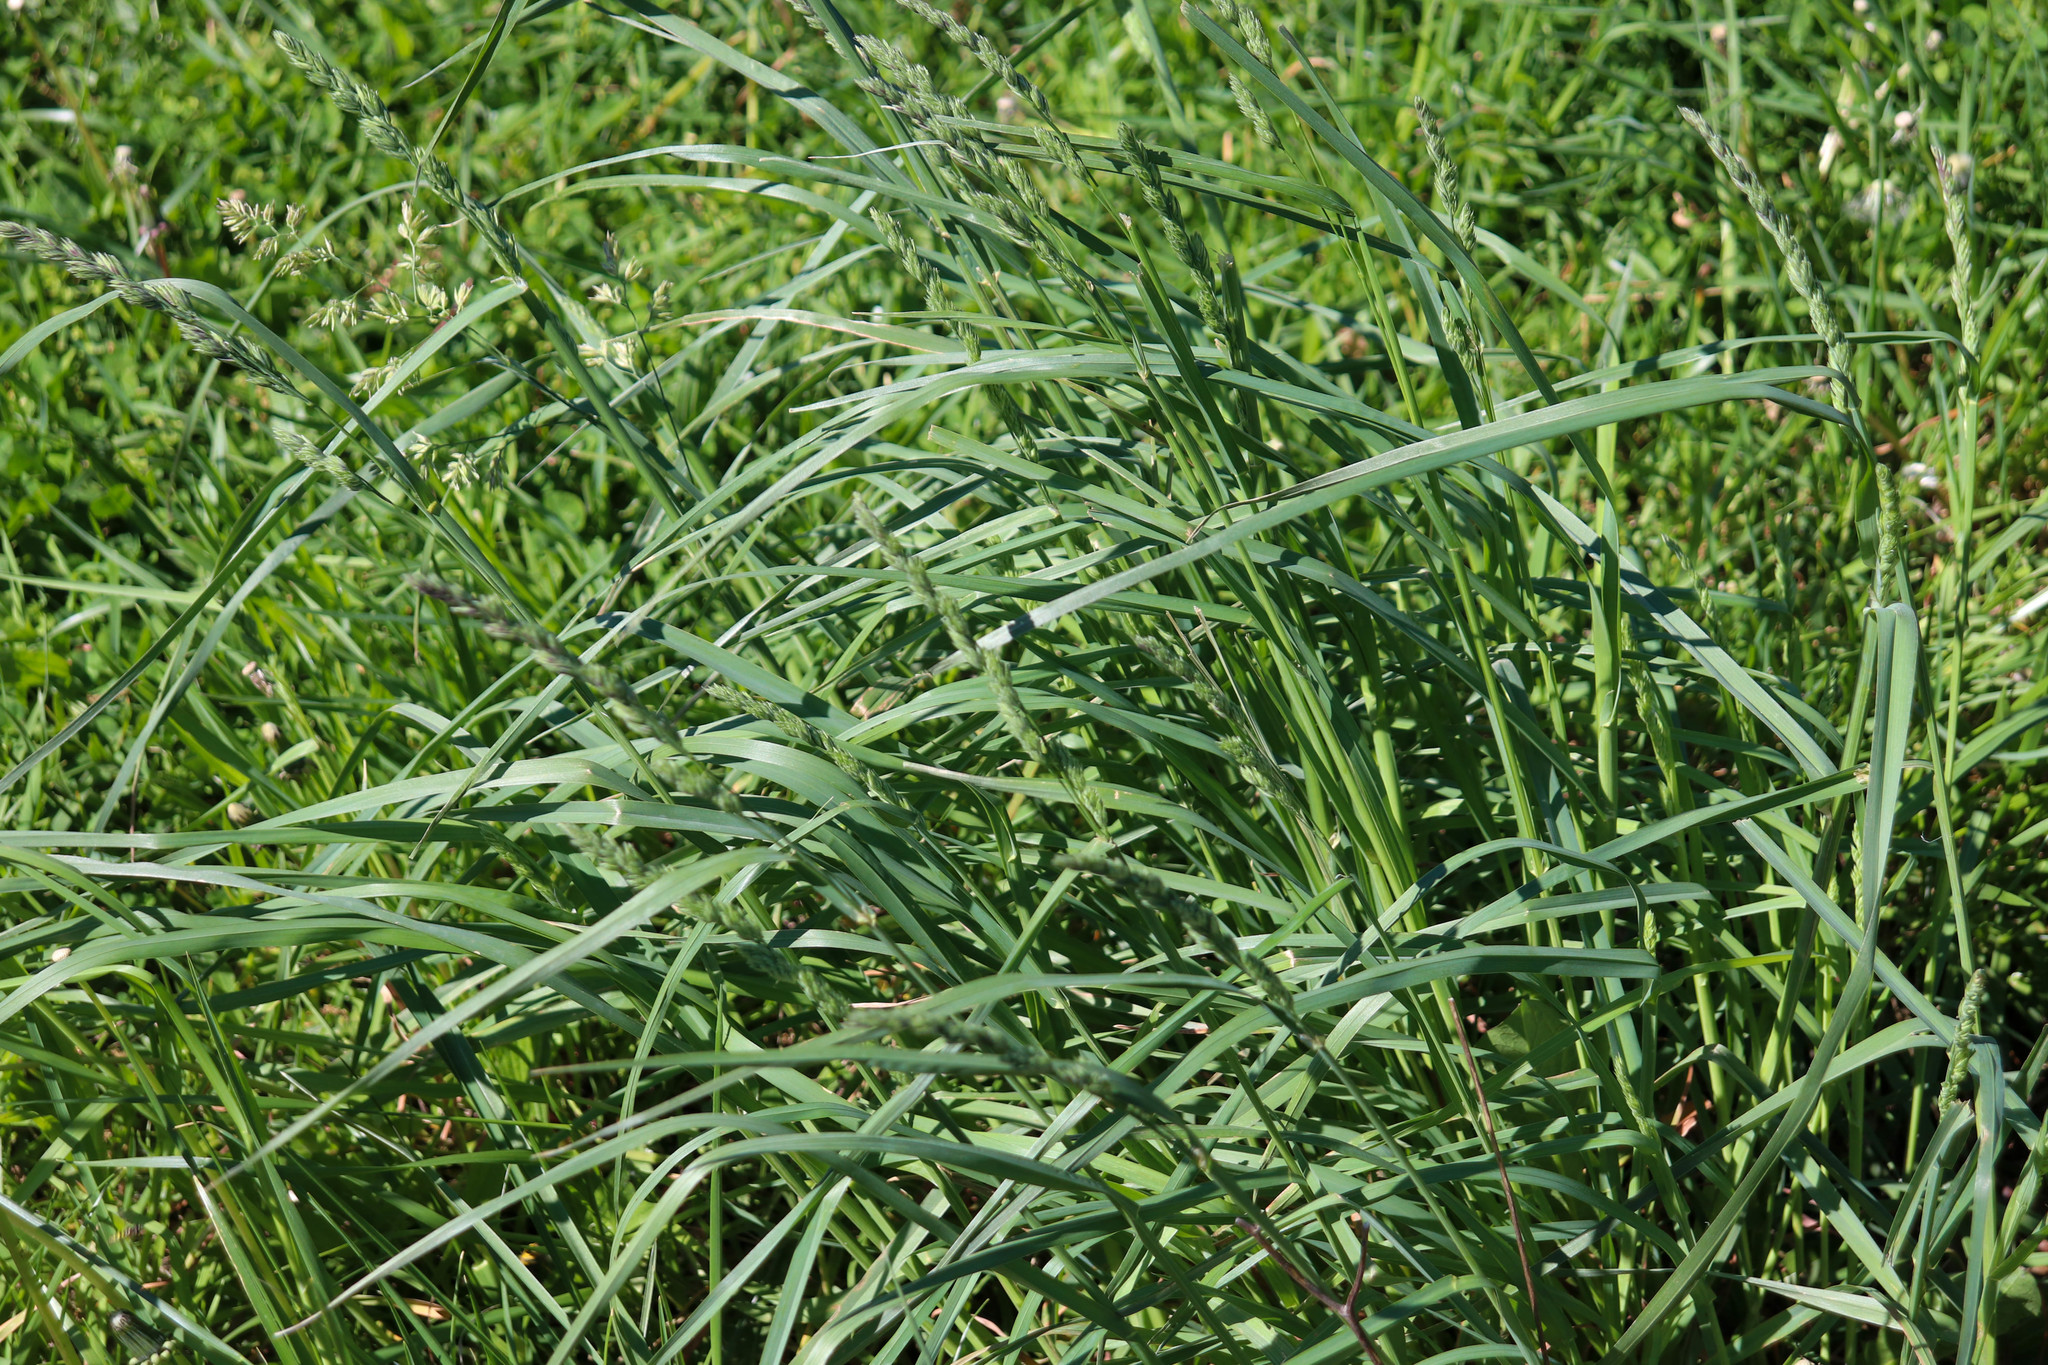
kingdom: Plantae
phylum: Tracheophyta
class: Liliopsida
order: Poales
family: Poaceae
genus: Dactylis
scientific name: Dactylis glomerata
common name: Orchardgrass
